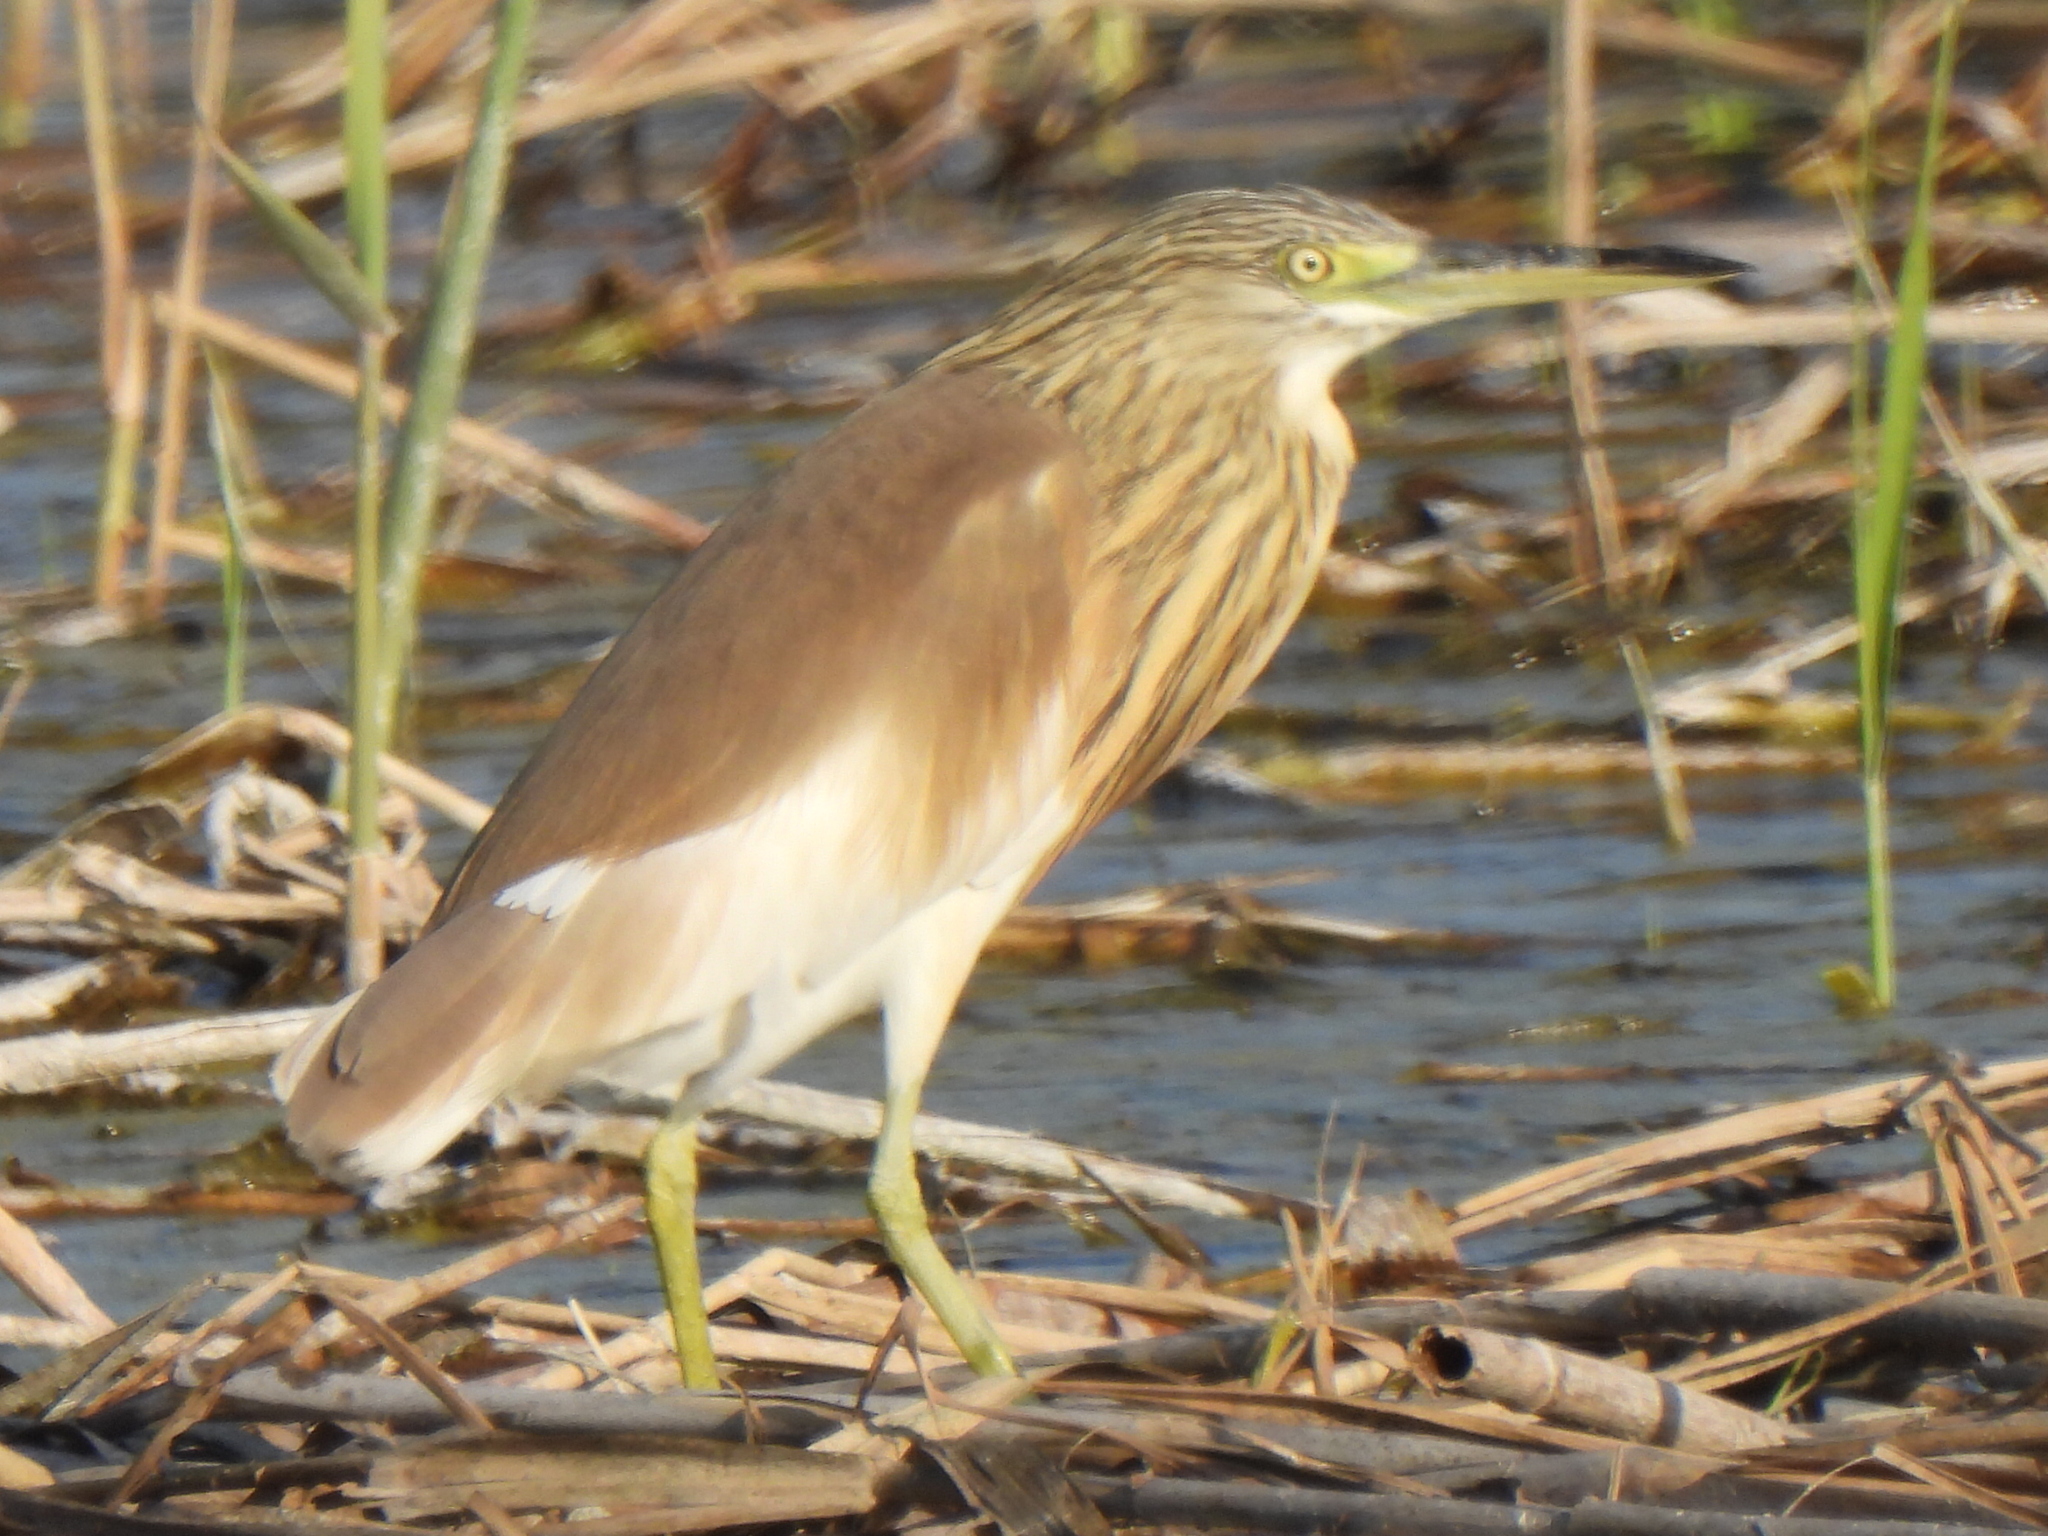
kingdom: Animalia
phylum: Chordata
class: Aves
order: Pelecaniformes
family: Ardeidae
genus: Ardeola
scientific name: Ardeola ralloides
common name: Squacco heron
